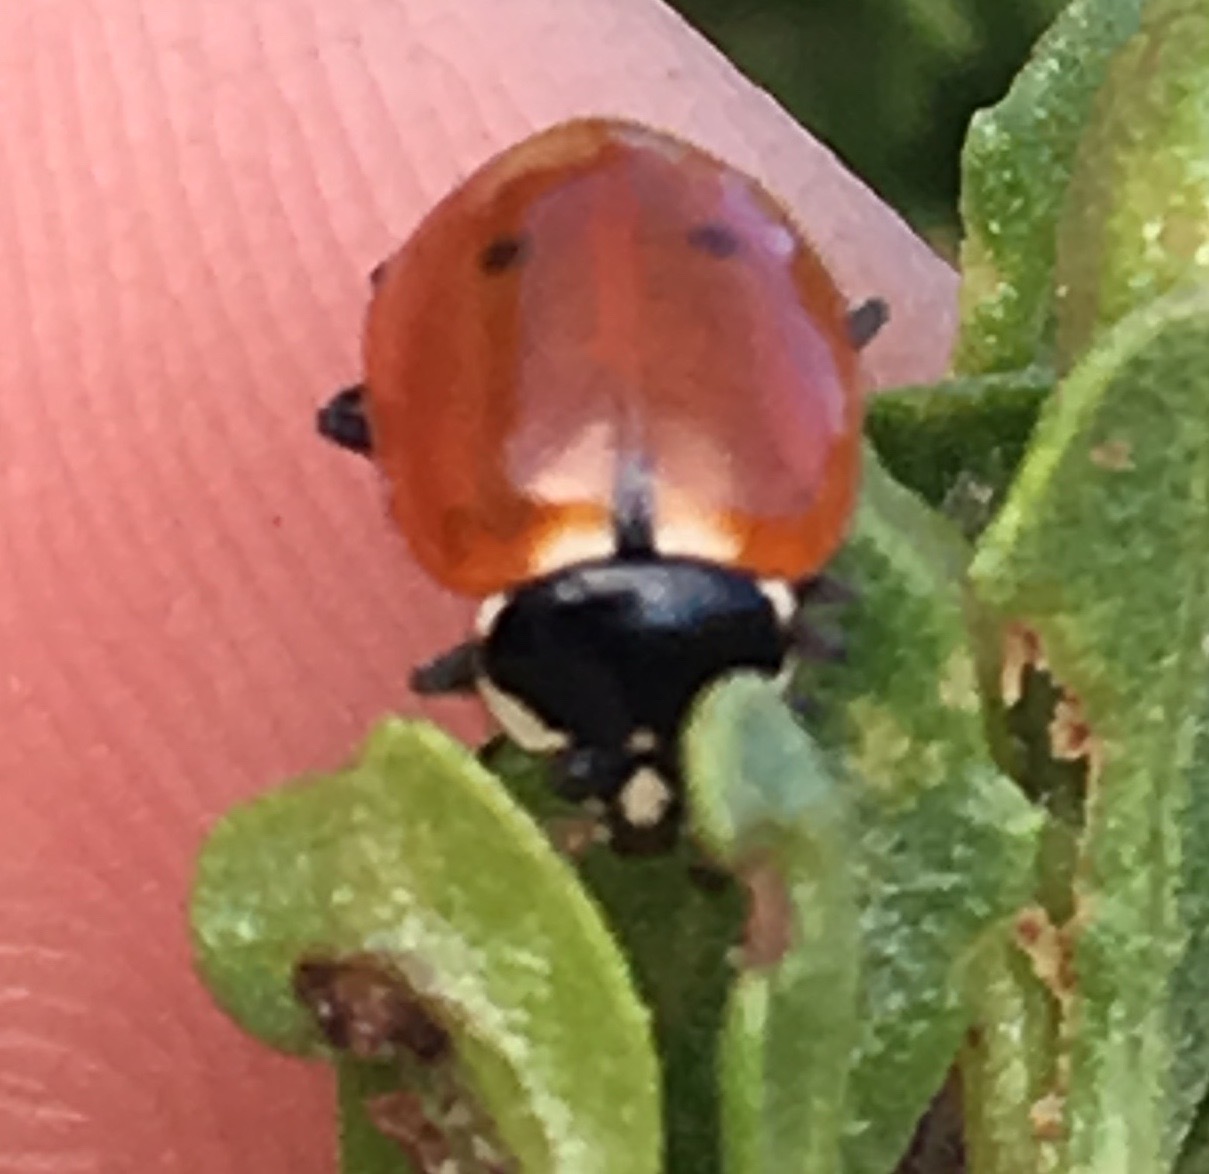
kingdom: Animalia
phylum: Arthropoda
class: Insecta
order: Coleoptera
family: Coccinellidae
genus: Hippodamia
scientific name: Hippodamia quinquesignata
